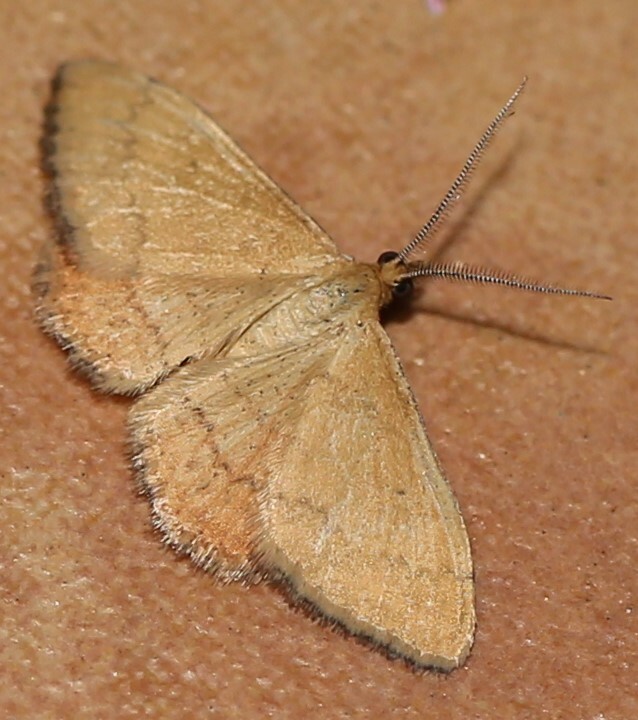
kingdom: Animalia
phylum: Arthropoda
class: Insecta
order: Lepidoptera
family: Geometridae
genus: Scopula
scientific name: Scopula rubraria
